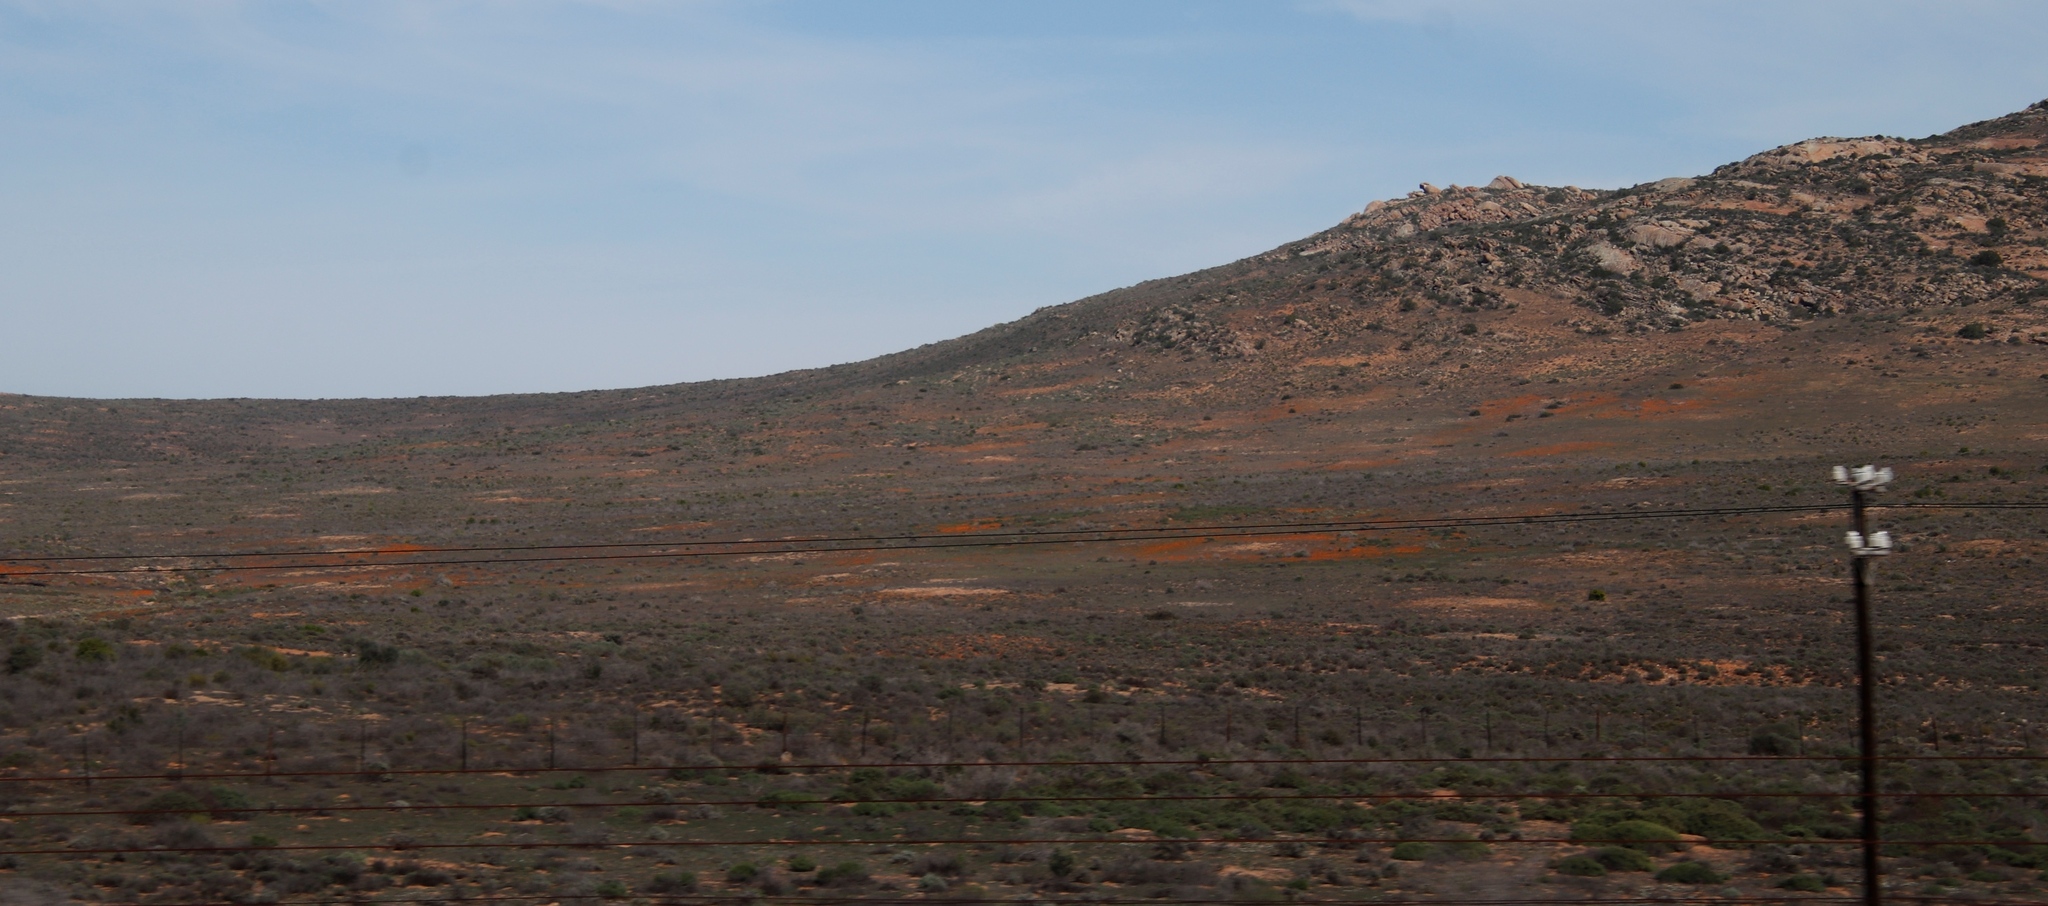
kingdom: Animalia
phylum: Arthropoda
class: Insecta
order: Blattodea
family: Hodotermitidae
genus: Microhodotermes
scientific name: Microhodotermes viator
